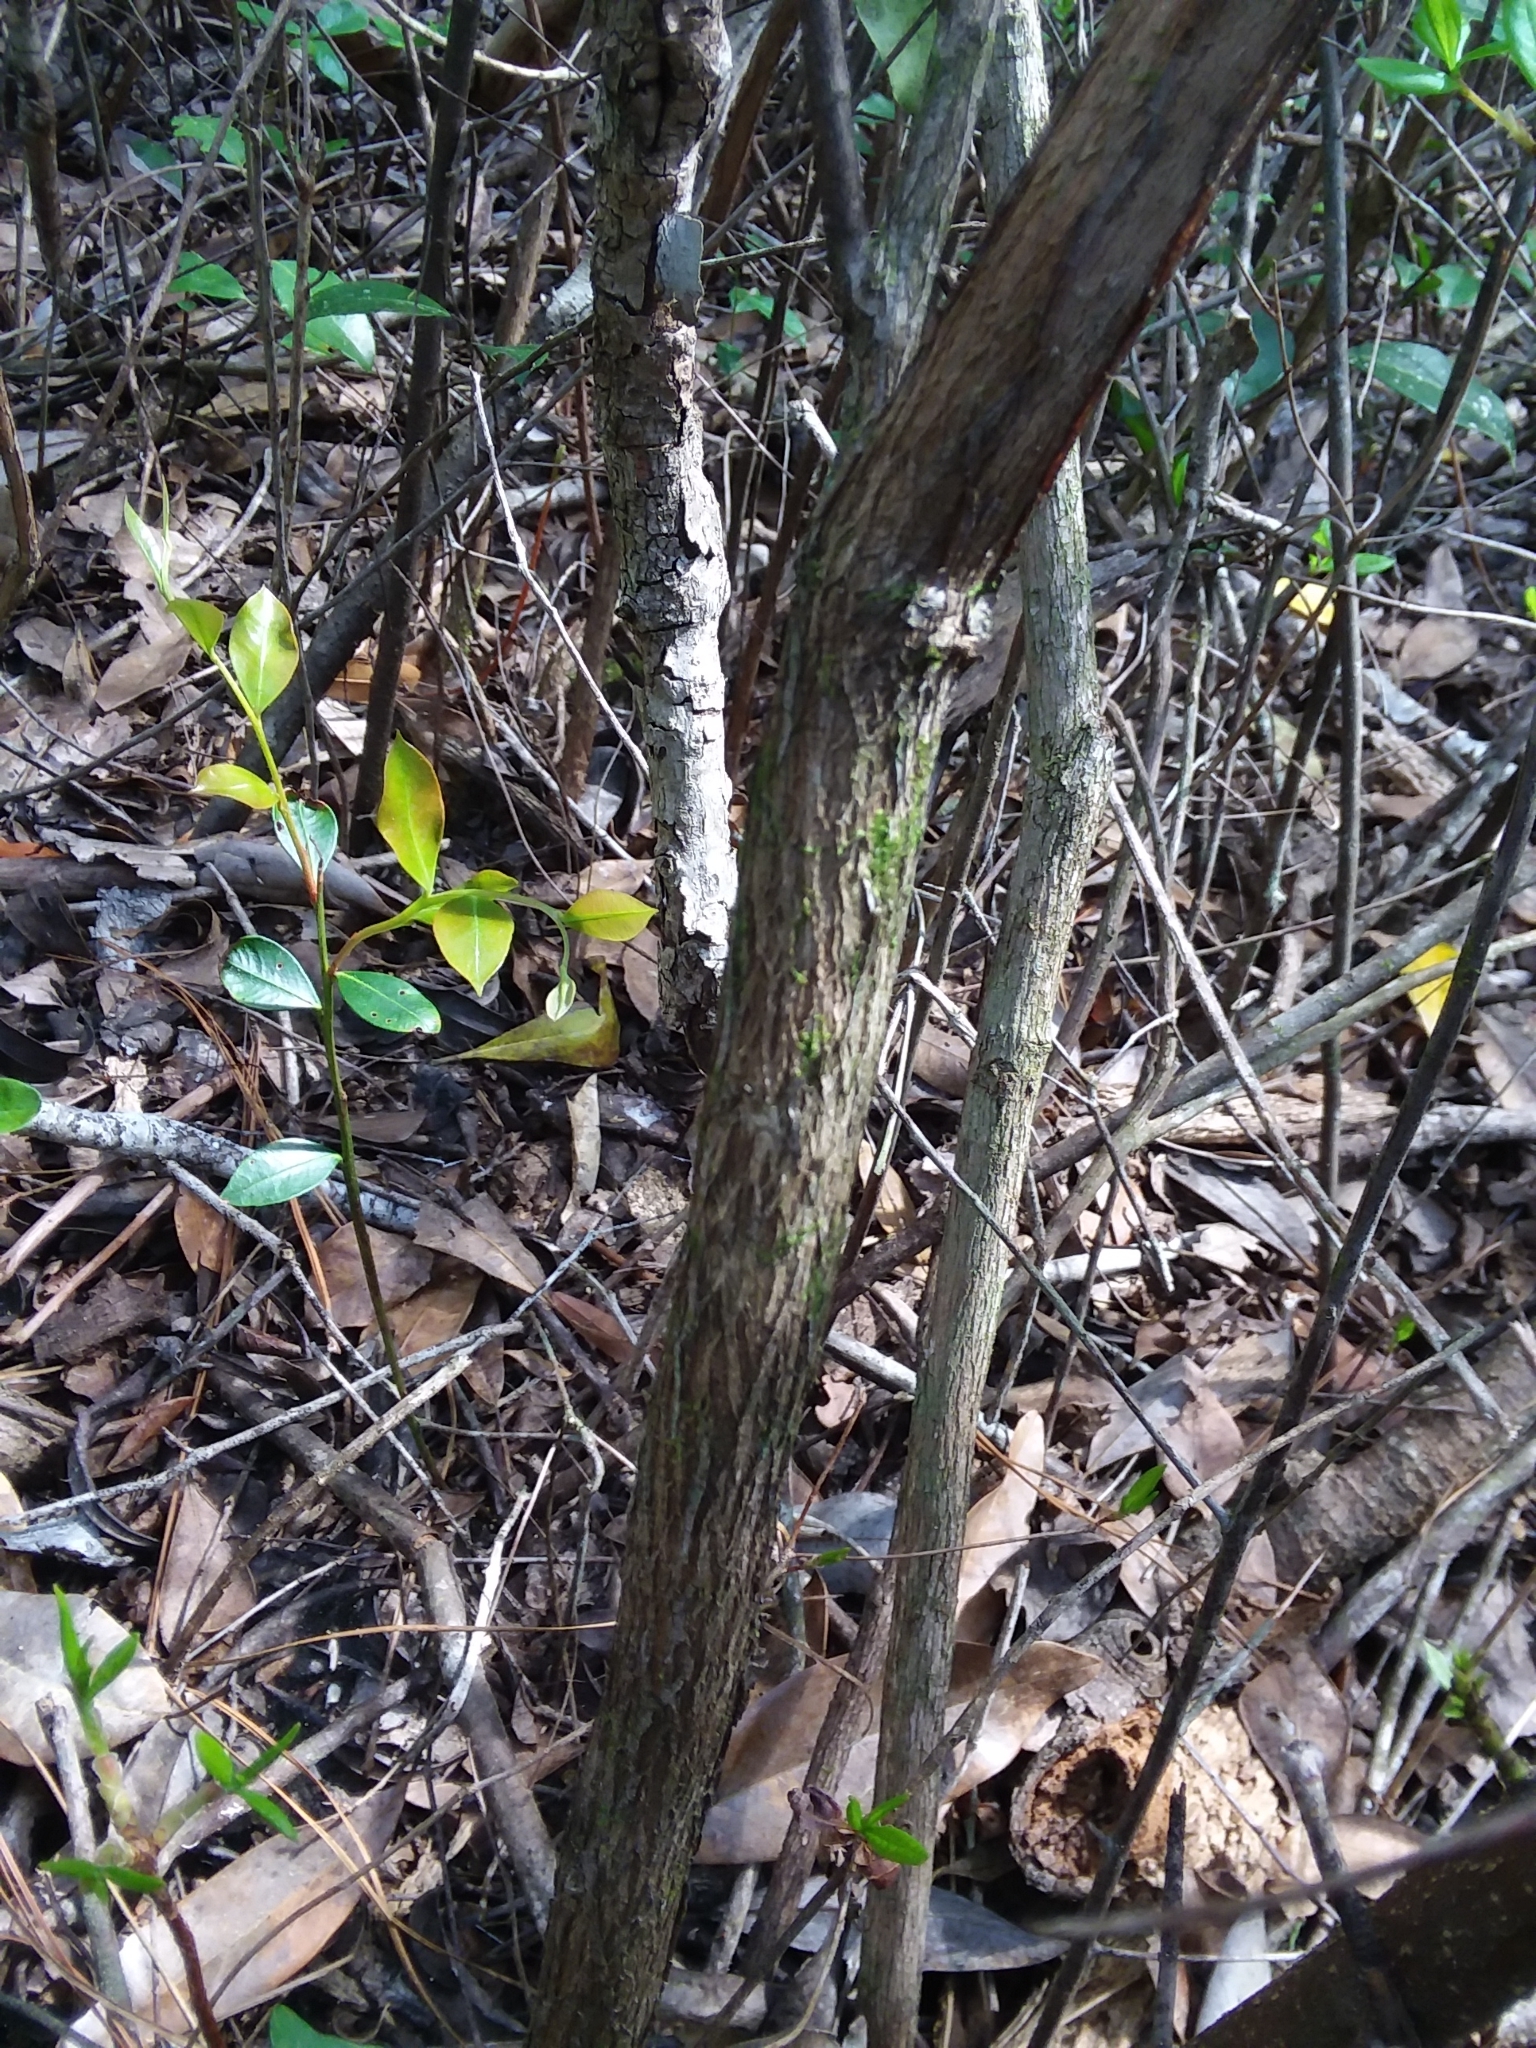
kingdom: Plantae
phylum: Tracheophyta
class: Magnoliopsida
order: Ericales
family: Ericaceae
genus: Lyonia
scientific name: Lyonia lucida
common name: Fetterbush
